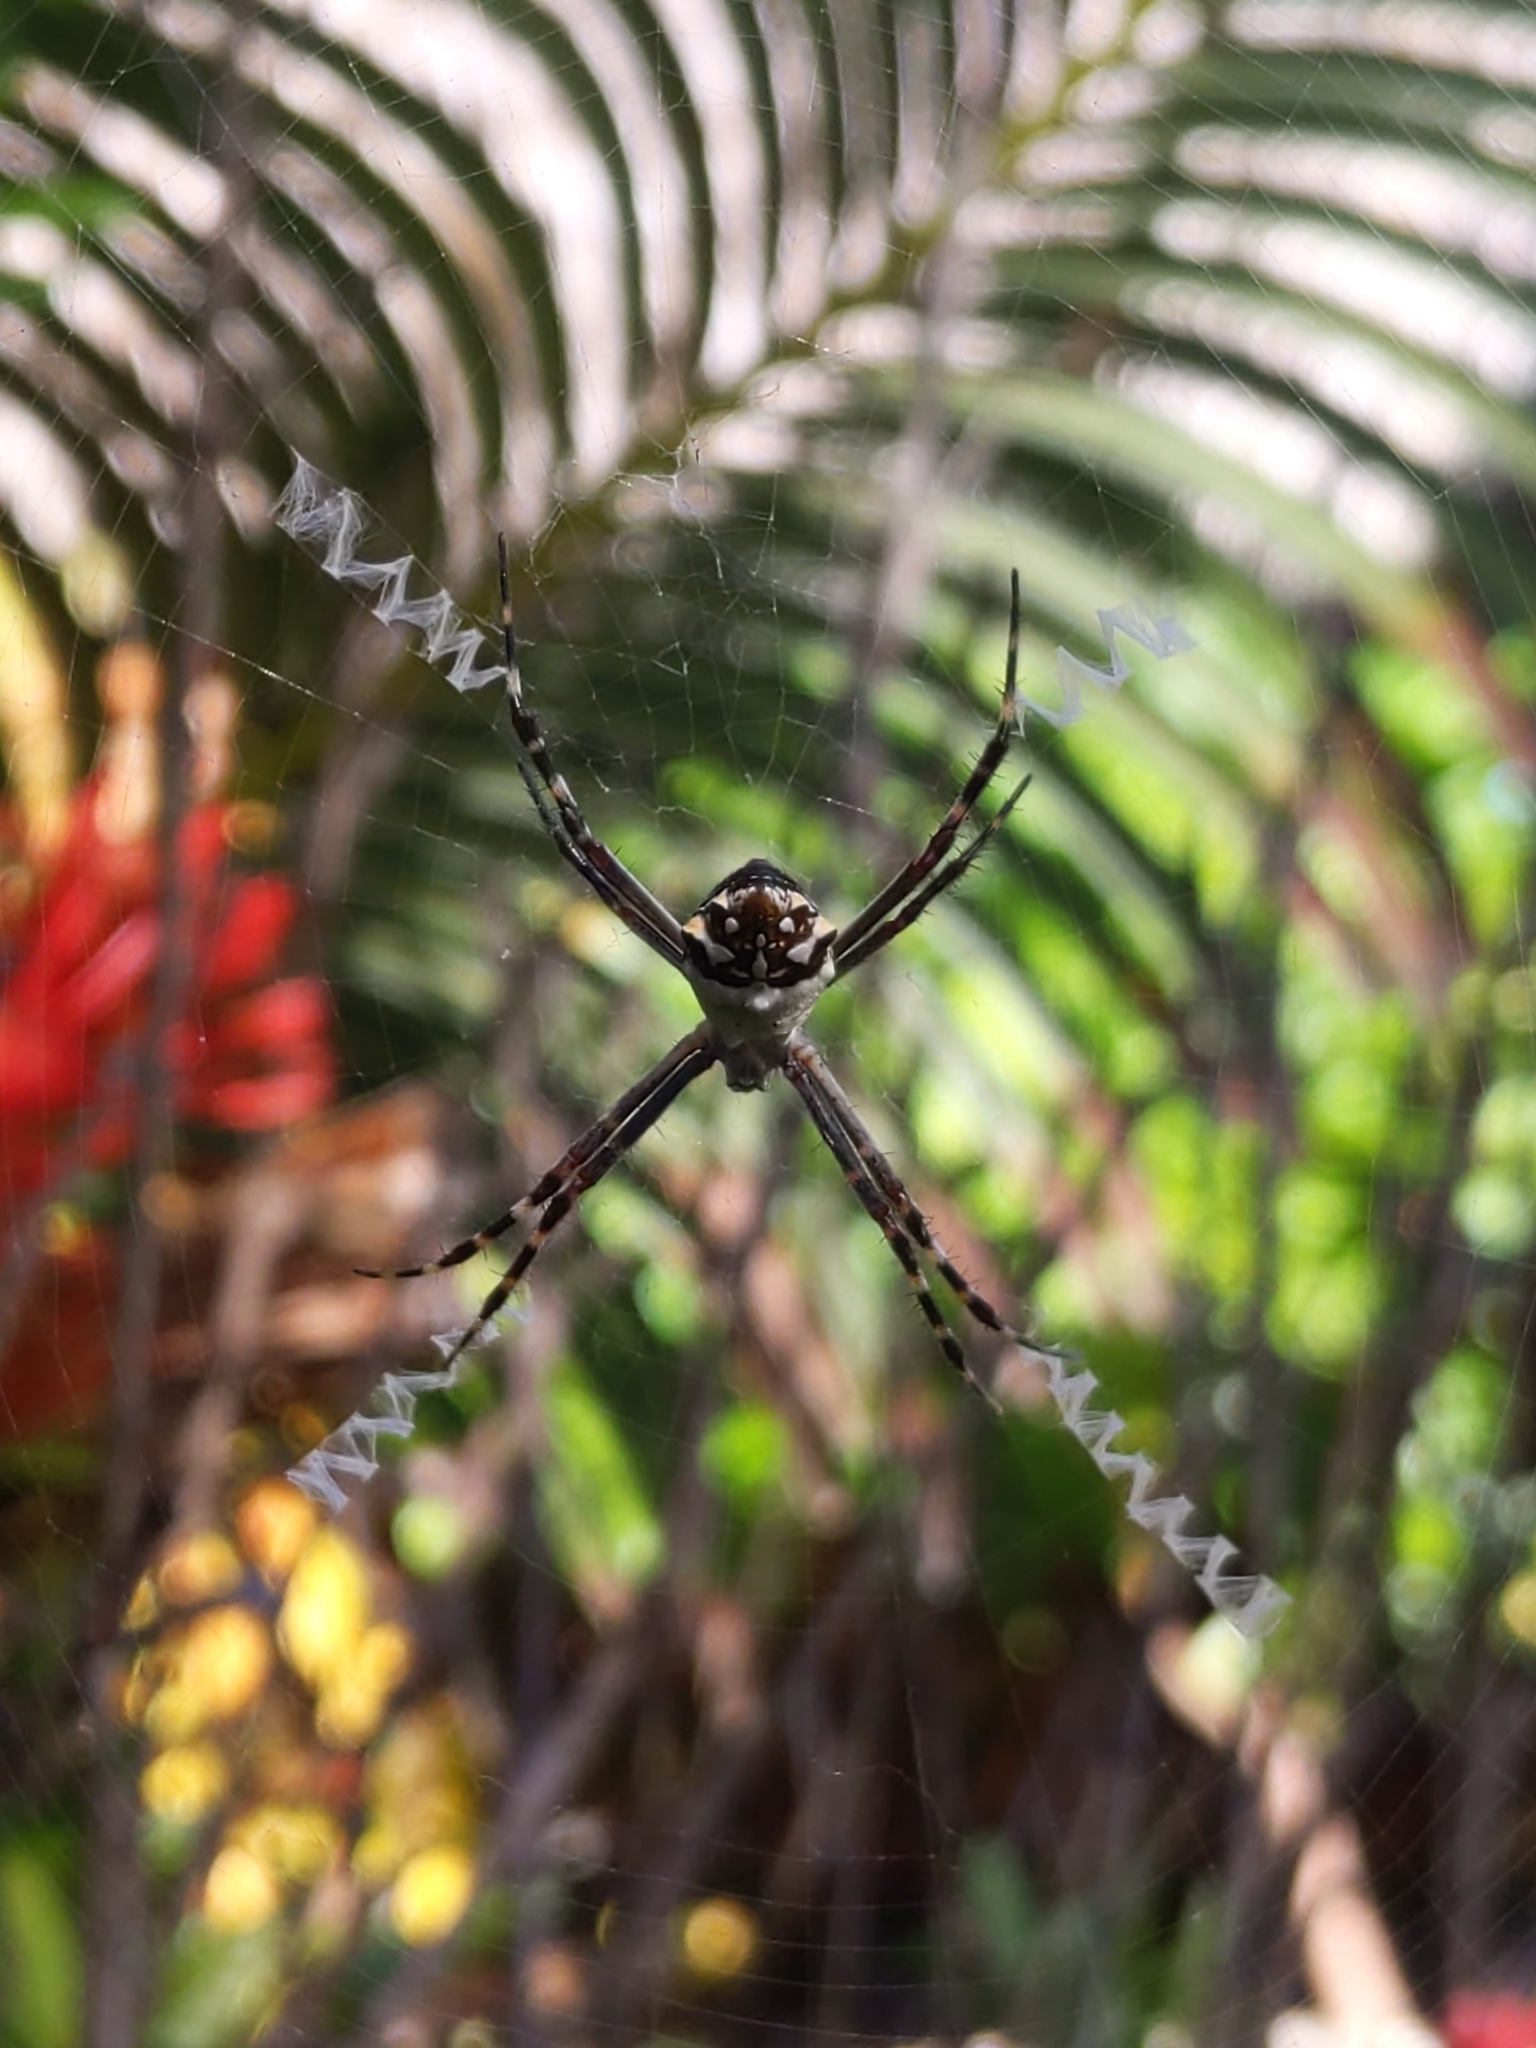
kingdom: Animalia
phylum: Arthropoda
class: Arachnida
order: Araneae
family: Araneidae
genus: Argiope
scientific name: Argiope argentata
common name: Orb weavers
